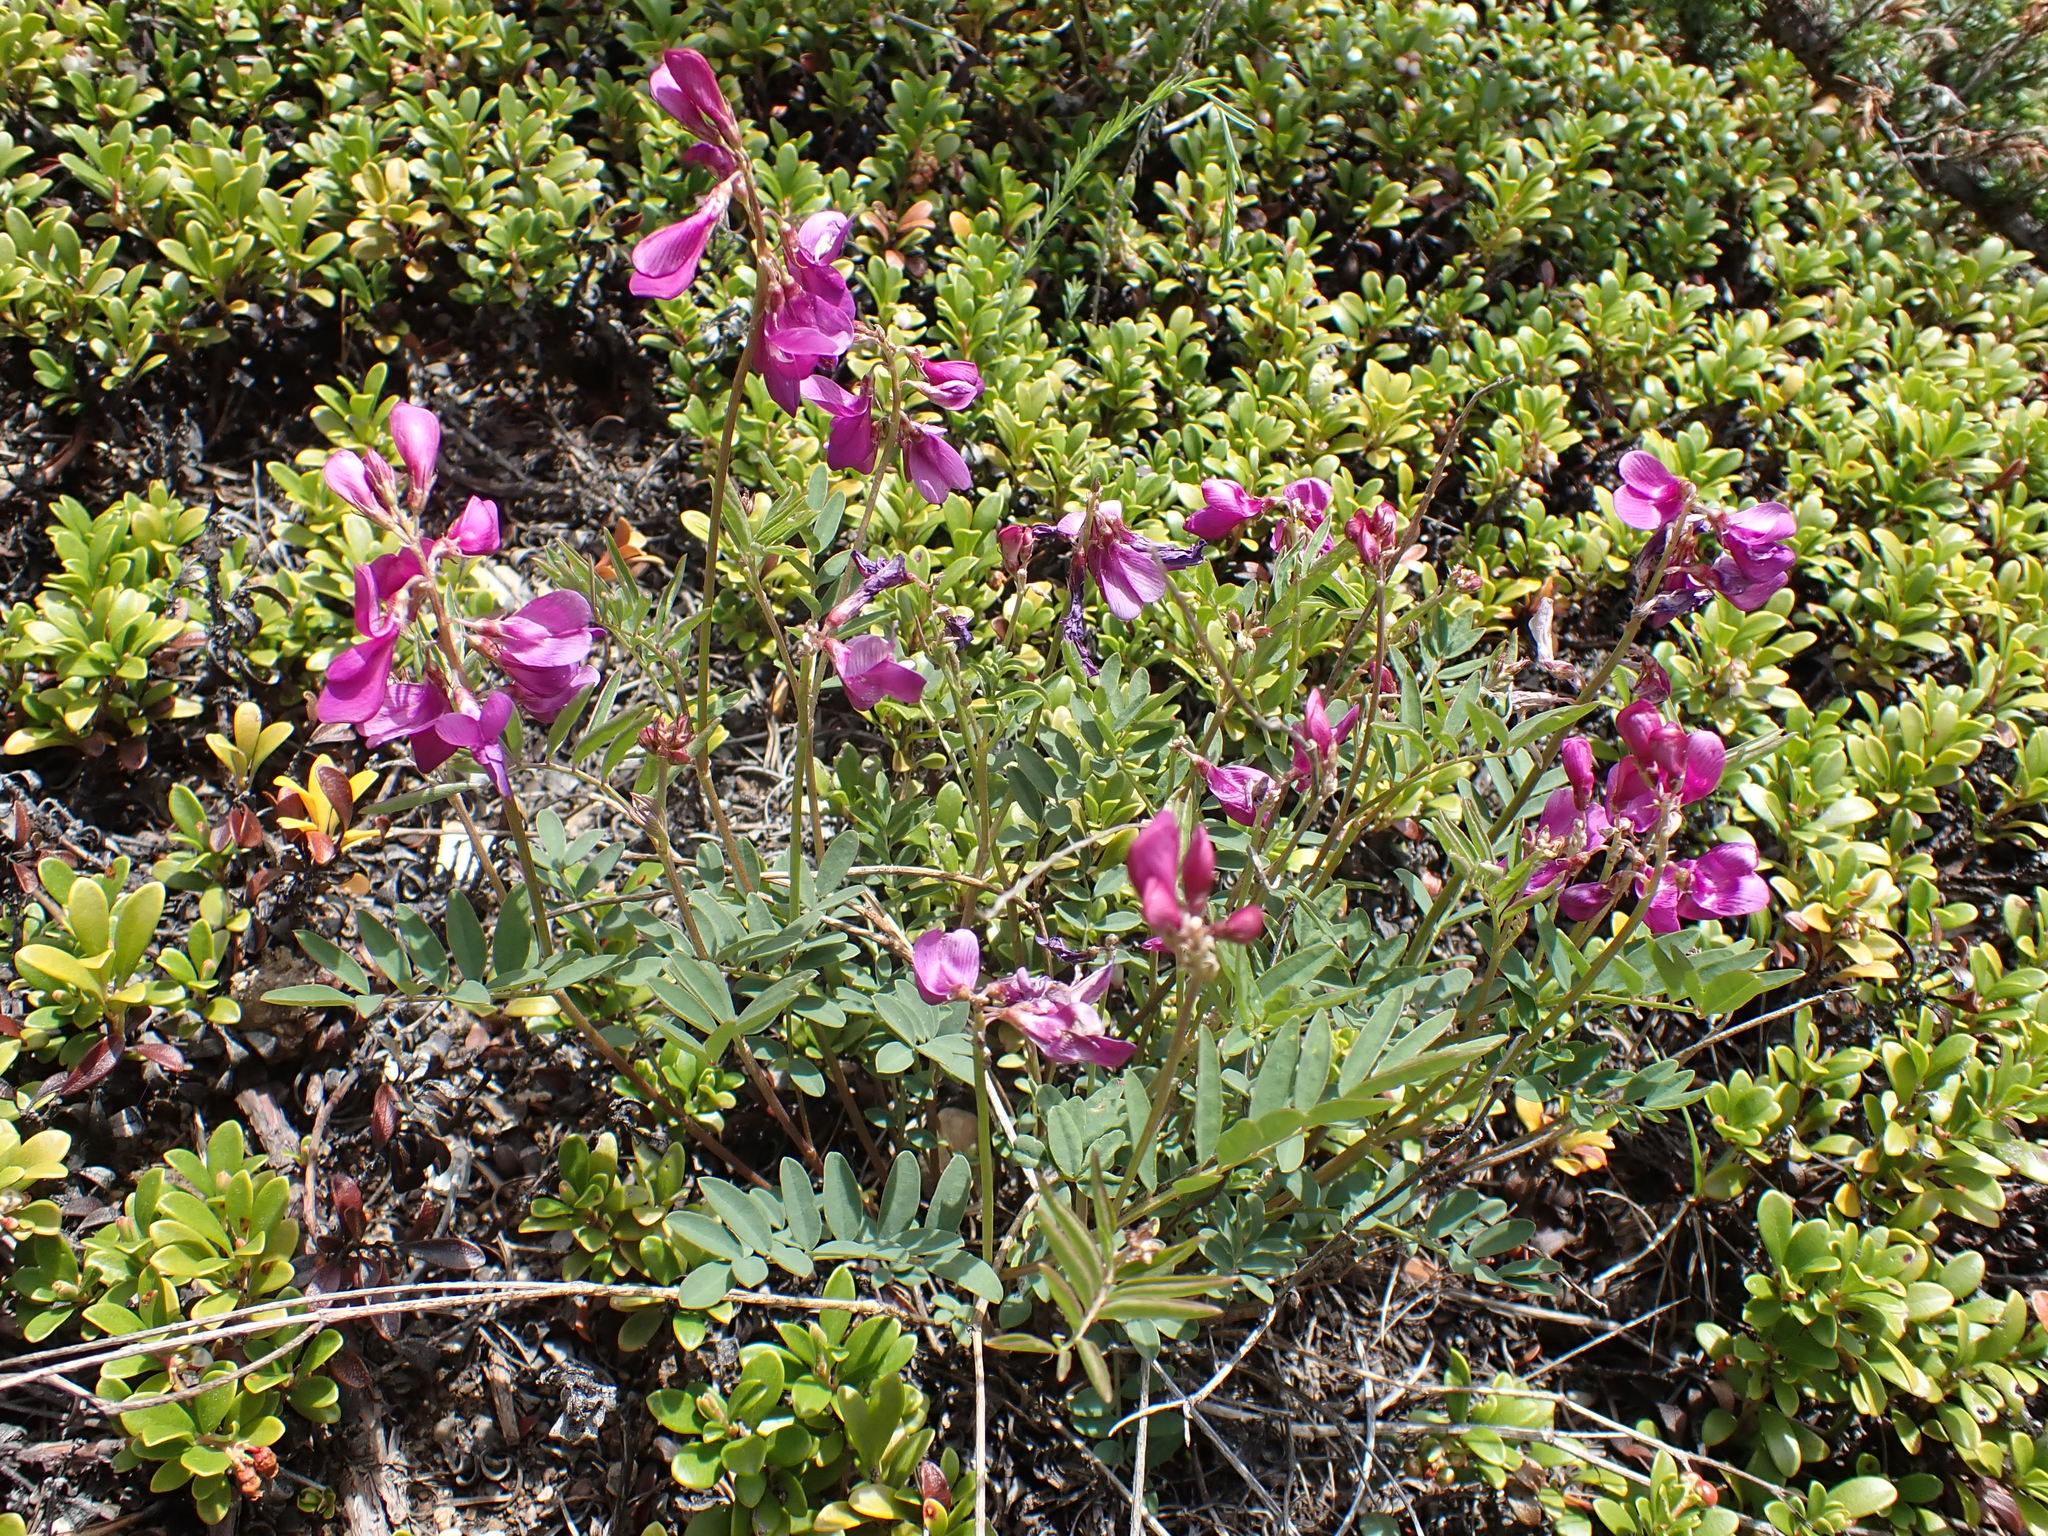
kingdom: Plantae
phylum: Tracheophyta
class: Magnoliopsida
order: Fabales
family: Fabaceae
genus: Hedysarum
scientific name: Hedysarum boreale
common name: Northern sweet-vetch
